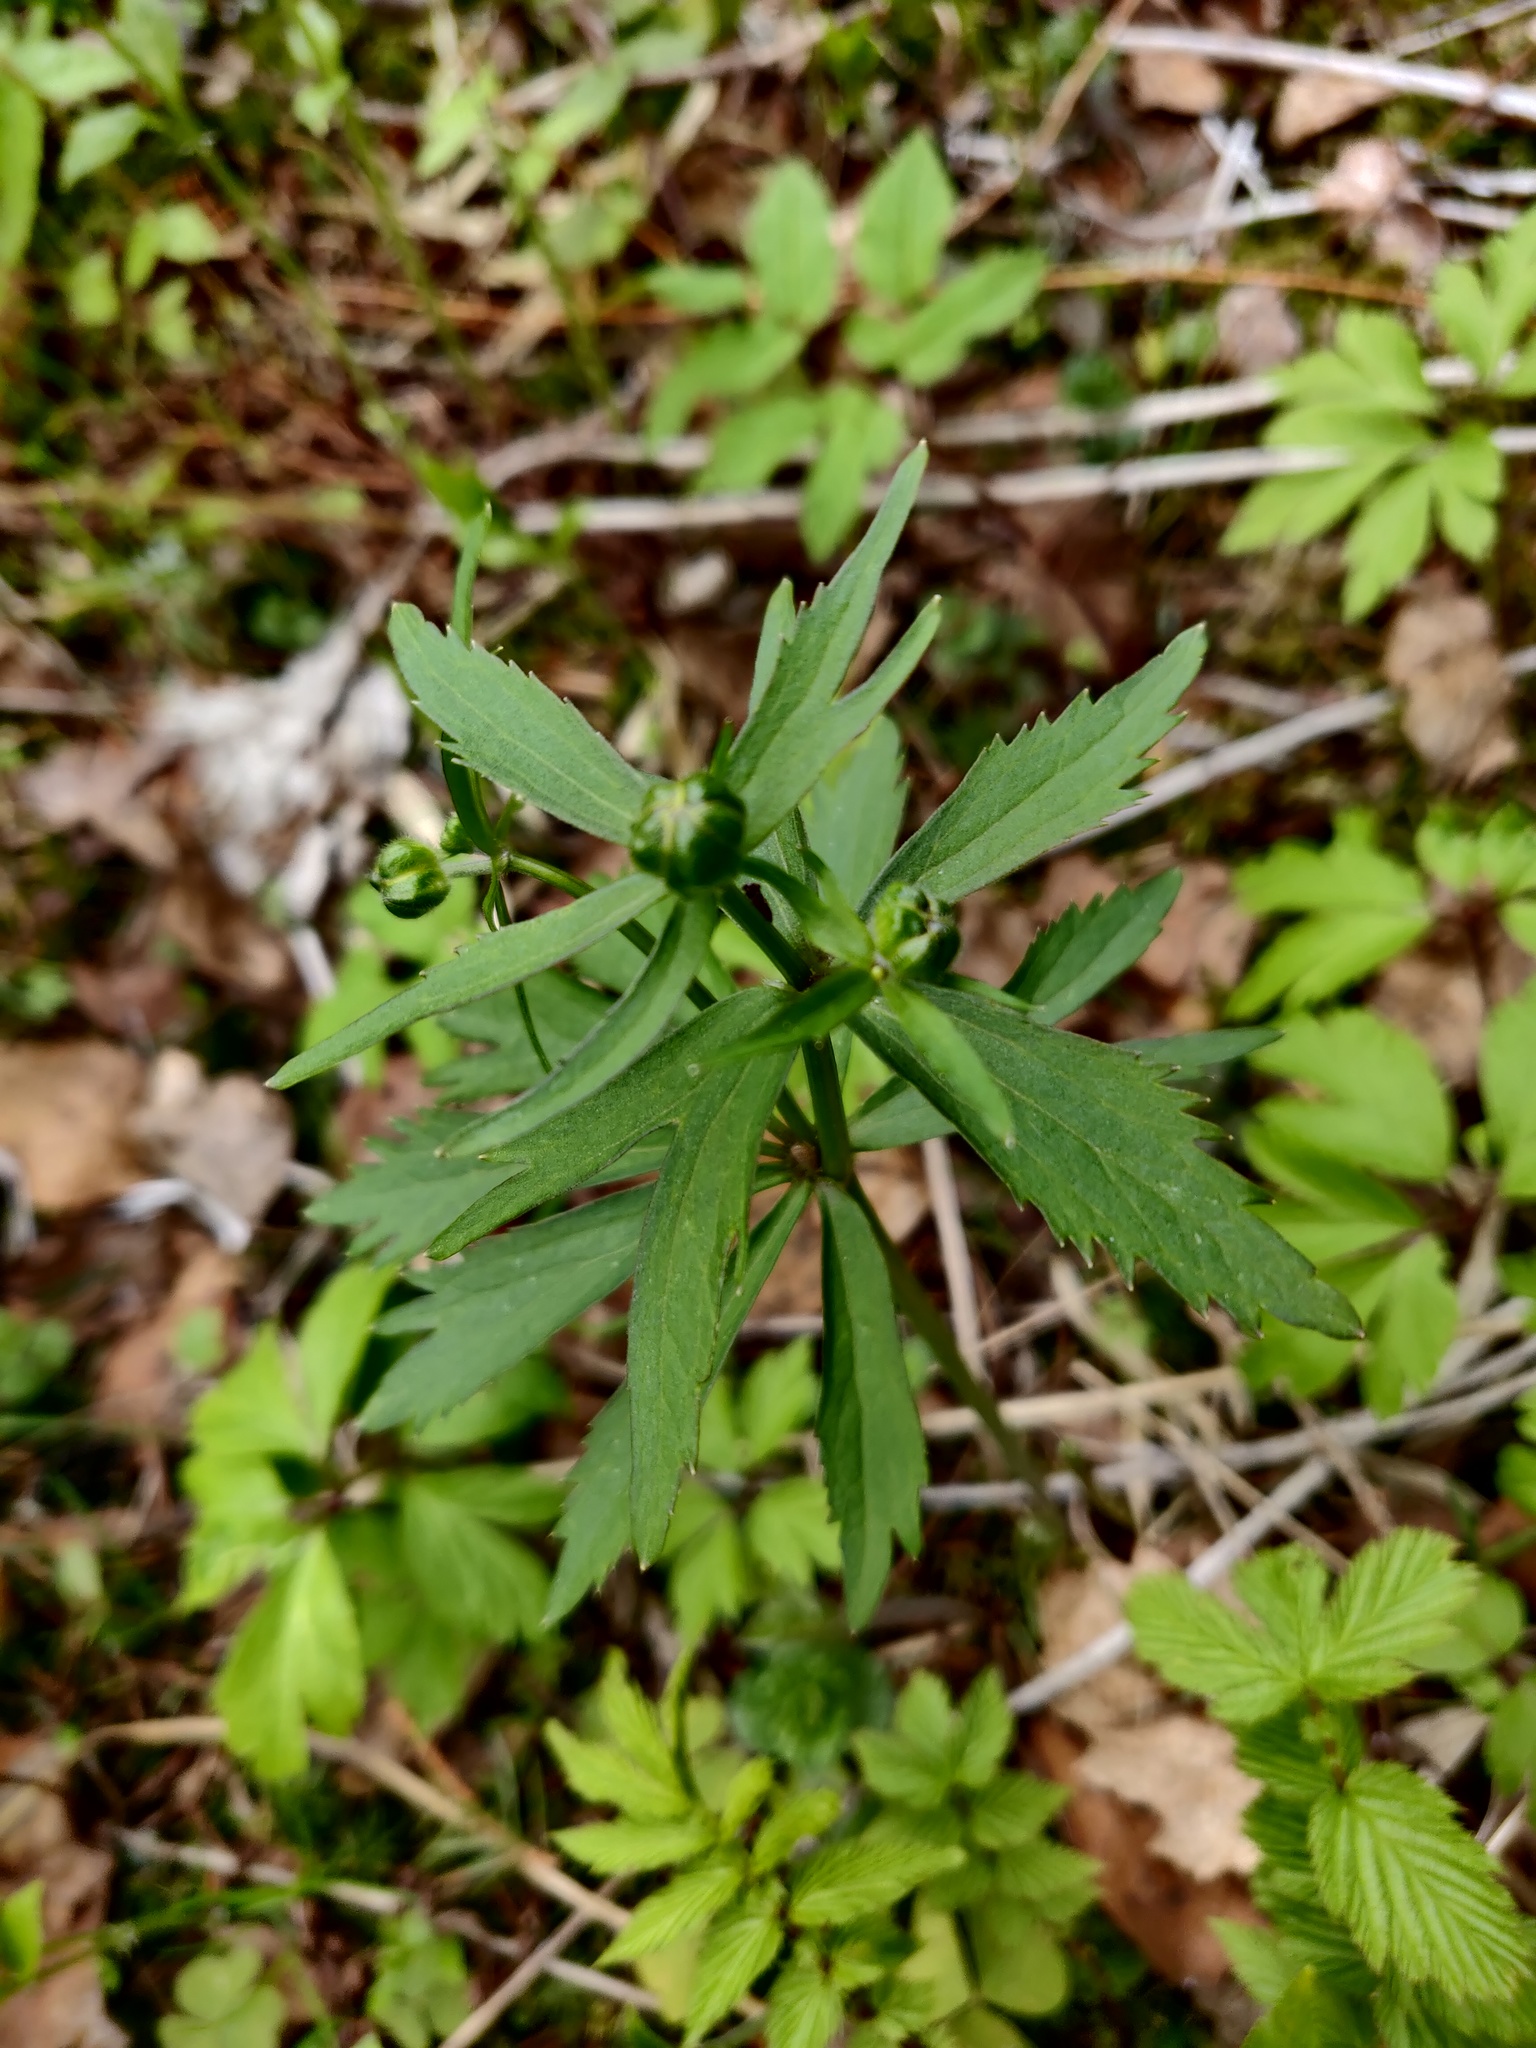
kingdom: Plantae
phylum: Tracheophyta
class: Magnoliopsida
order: Ranunculales
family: Ranunculaceae
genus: Ranunculus
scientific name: Ranunculus cassubicus
